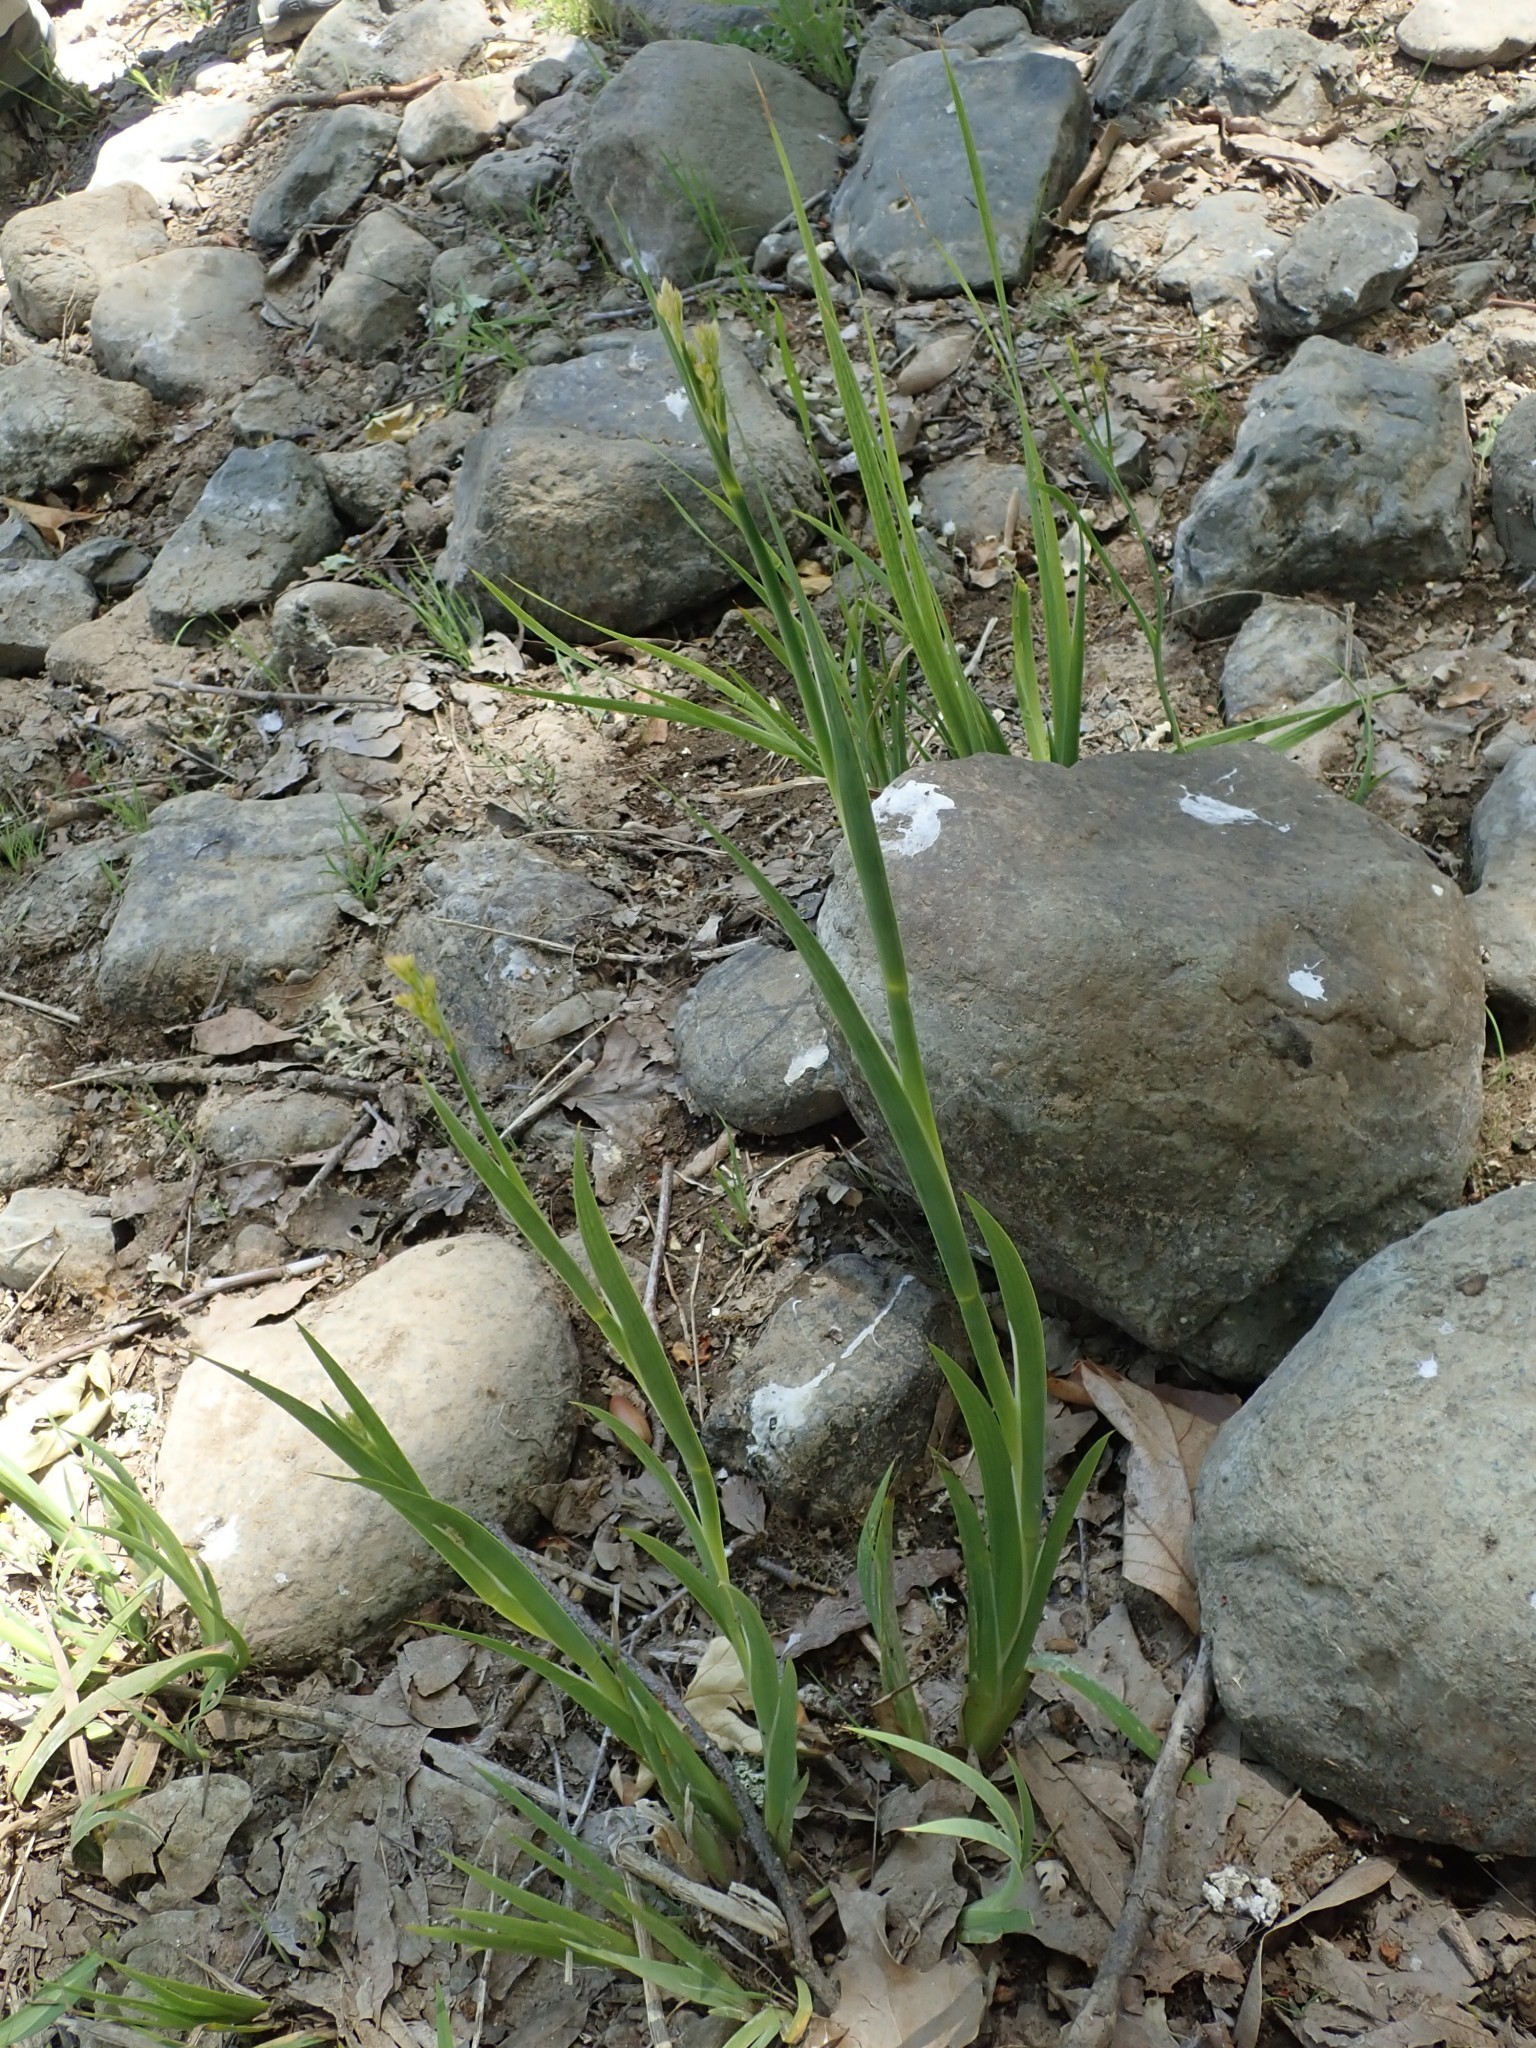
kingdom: Plantae
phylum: Tracheophyta
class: Liliopsida
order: Poales
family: Juncaceae
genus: Juncus
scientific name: Juncus xiphioides
